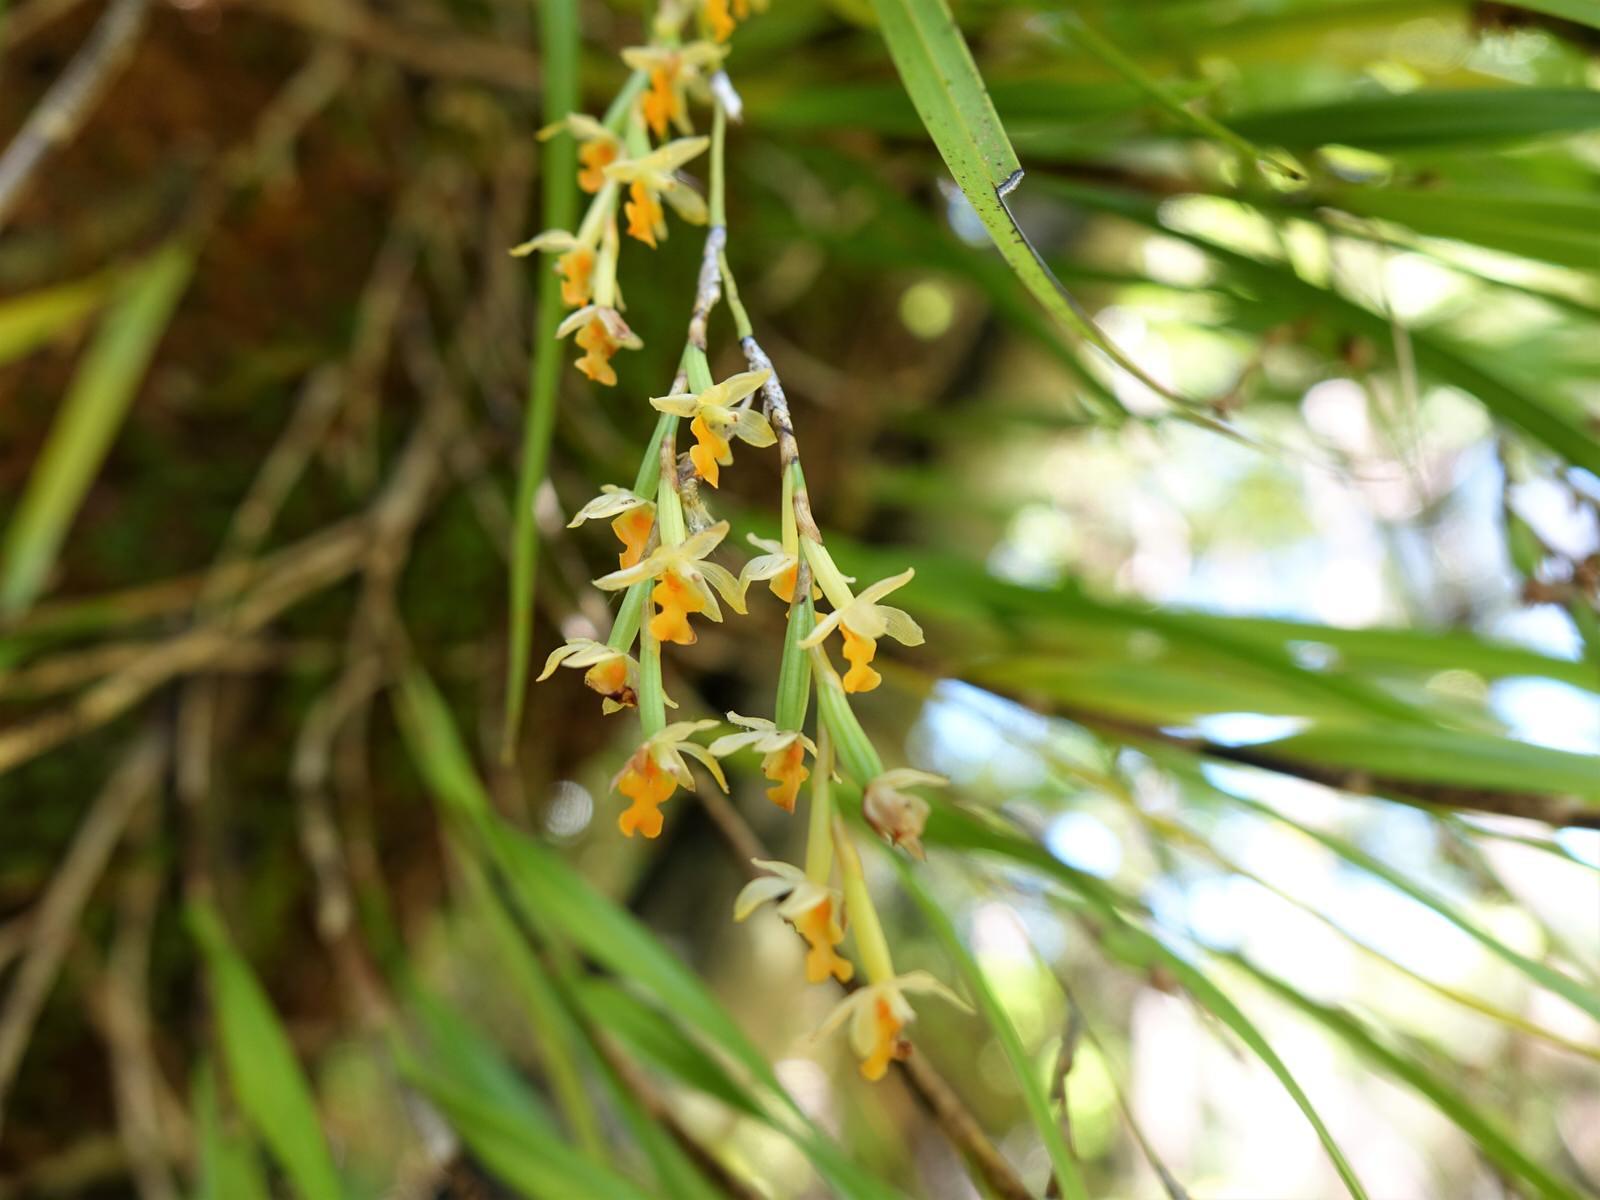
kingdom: Plantae
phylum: Tracheophyta
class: Liliopsida
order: Asparagales
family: Orchidaceae
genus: Earina
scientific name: Earina aestivalis
